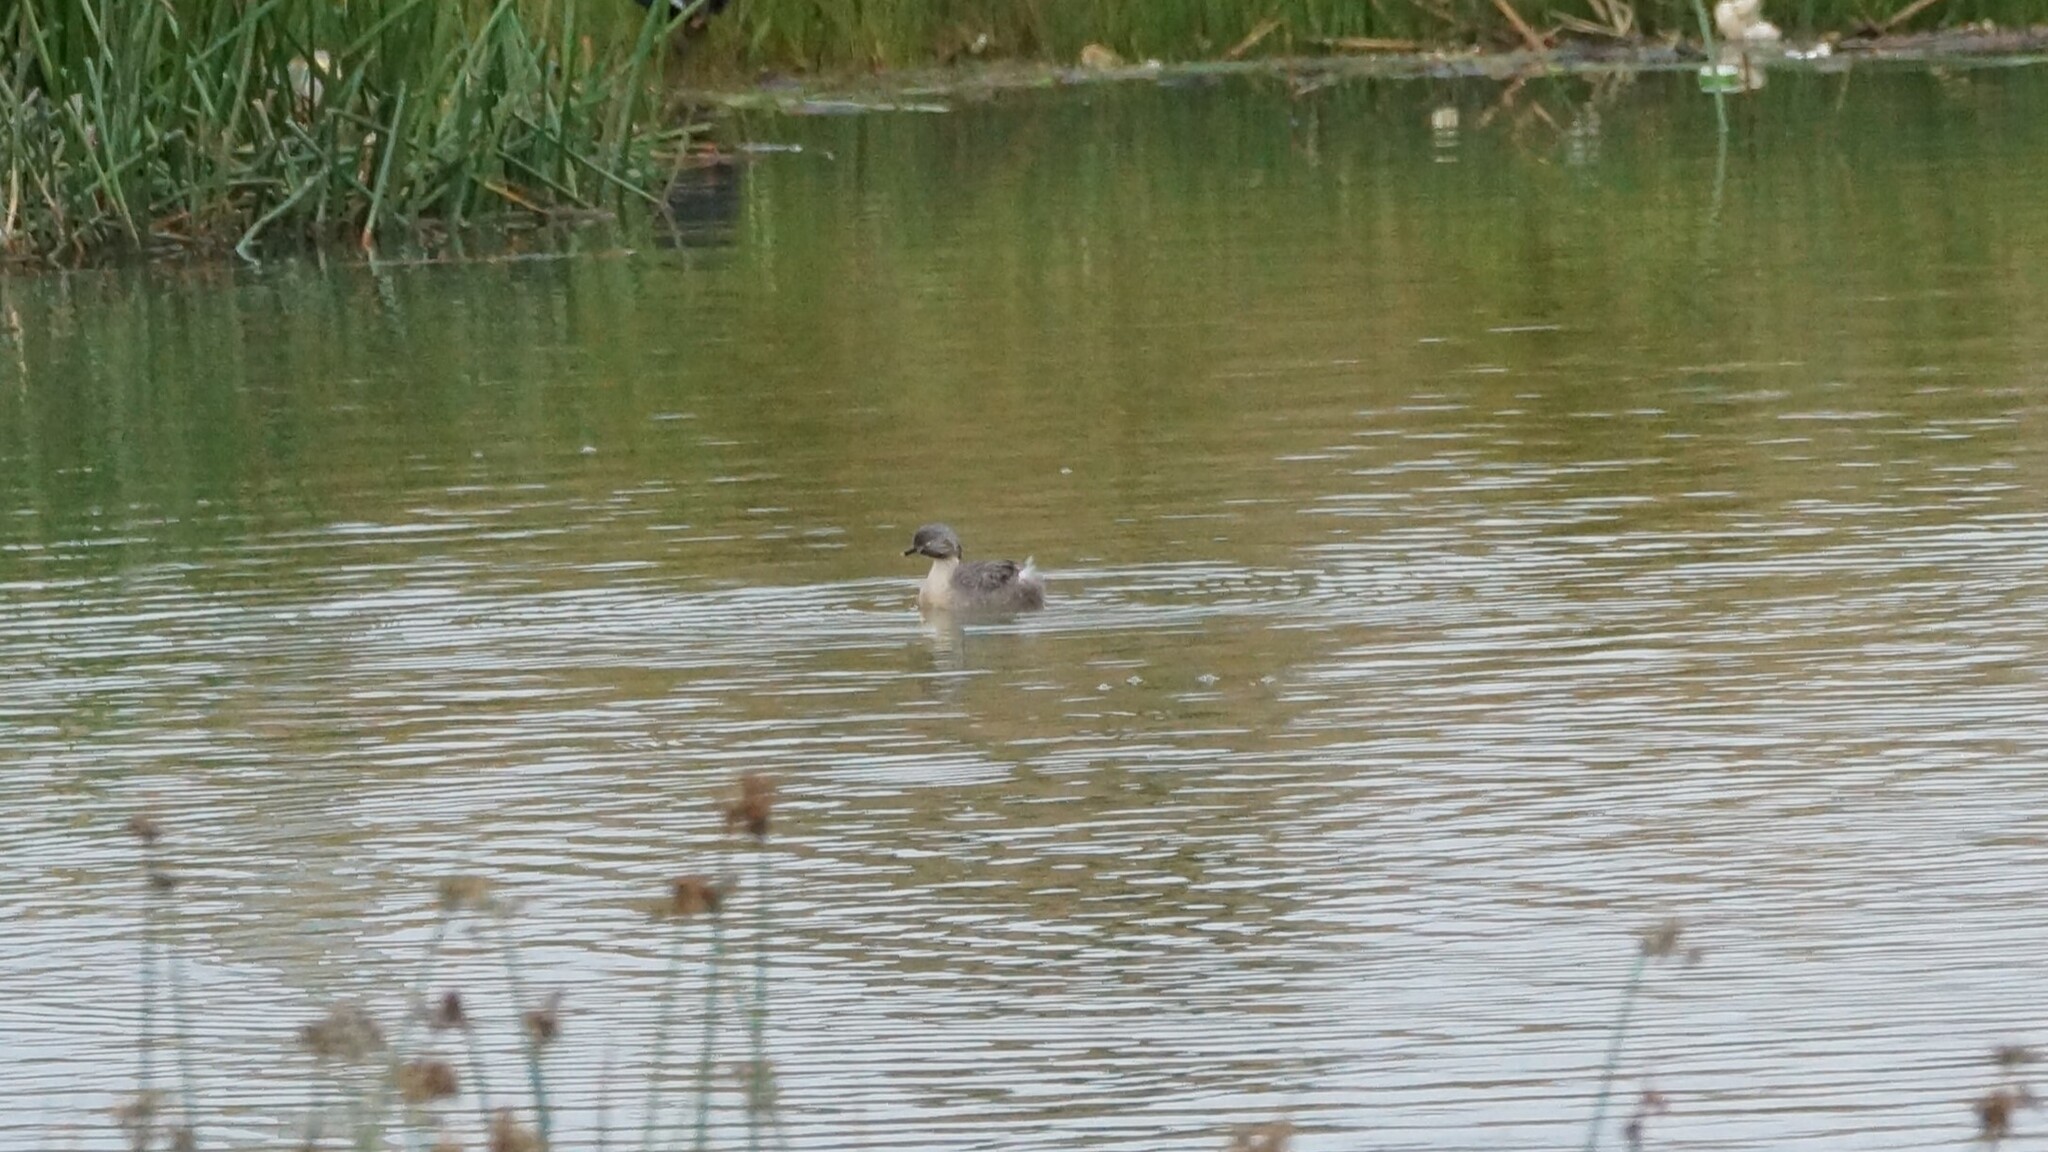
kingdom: Animalia
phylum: Chordata
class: Aves
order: Podicipediformes
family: Podicipedidae
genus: Poliocephalus
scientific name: Poliocephalus poliocephalus
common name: Hoary-headed grebe
